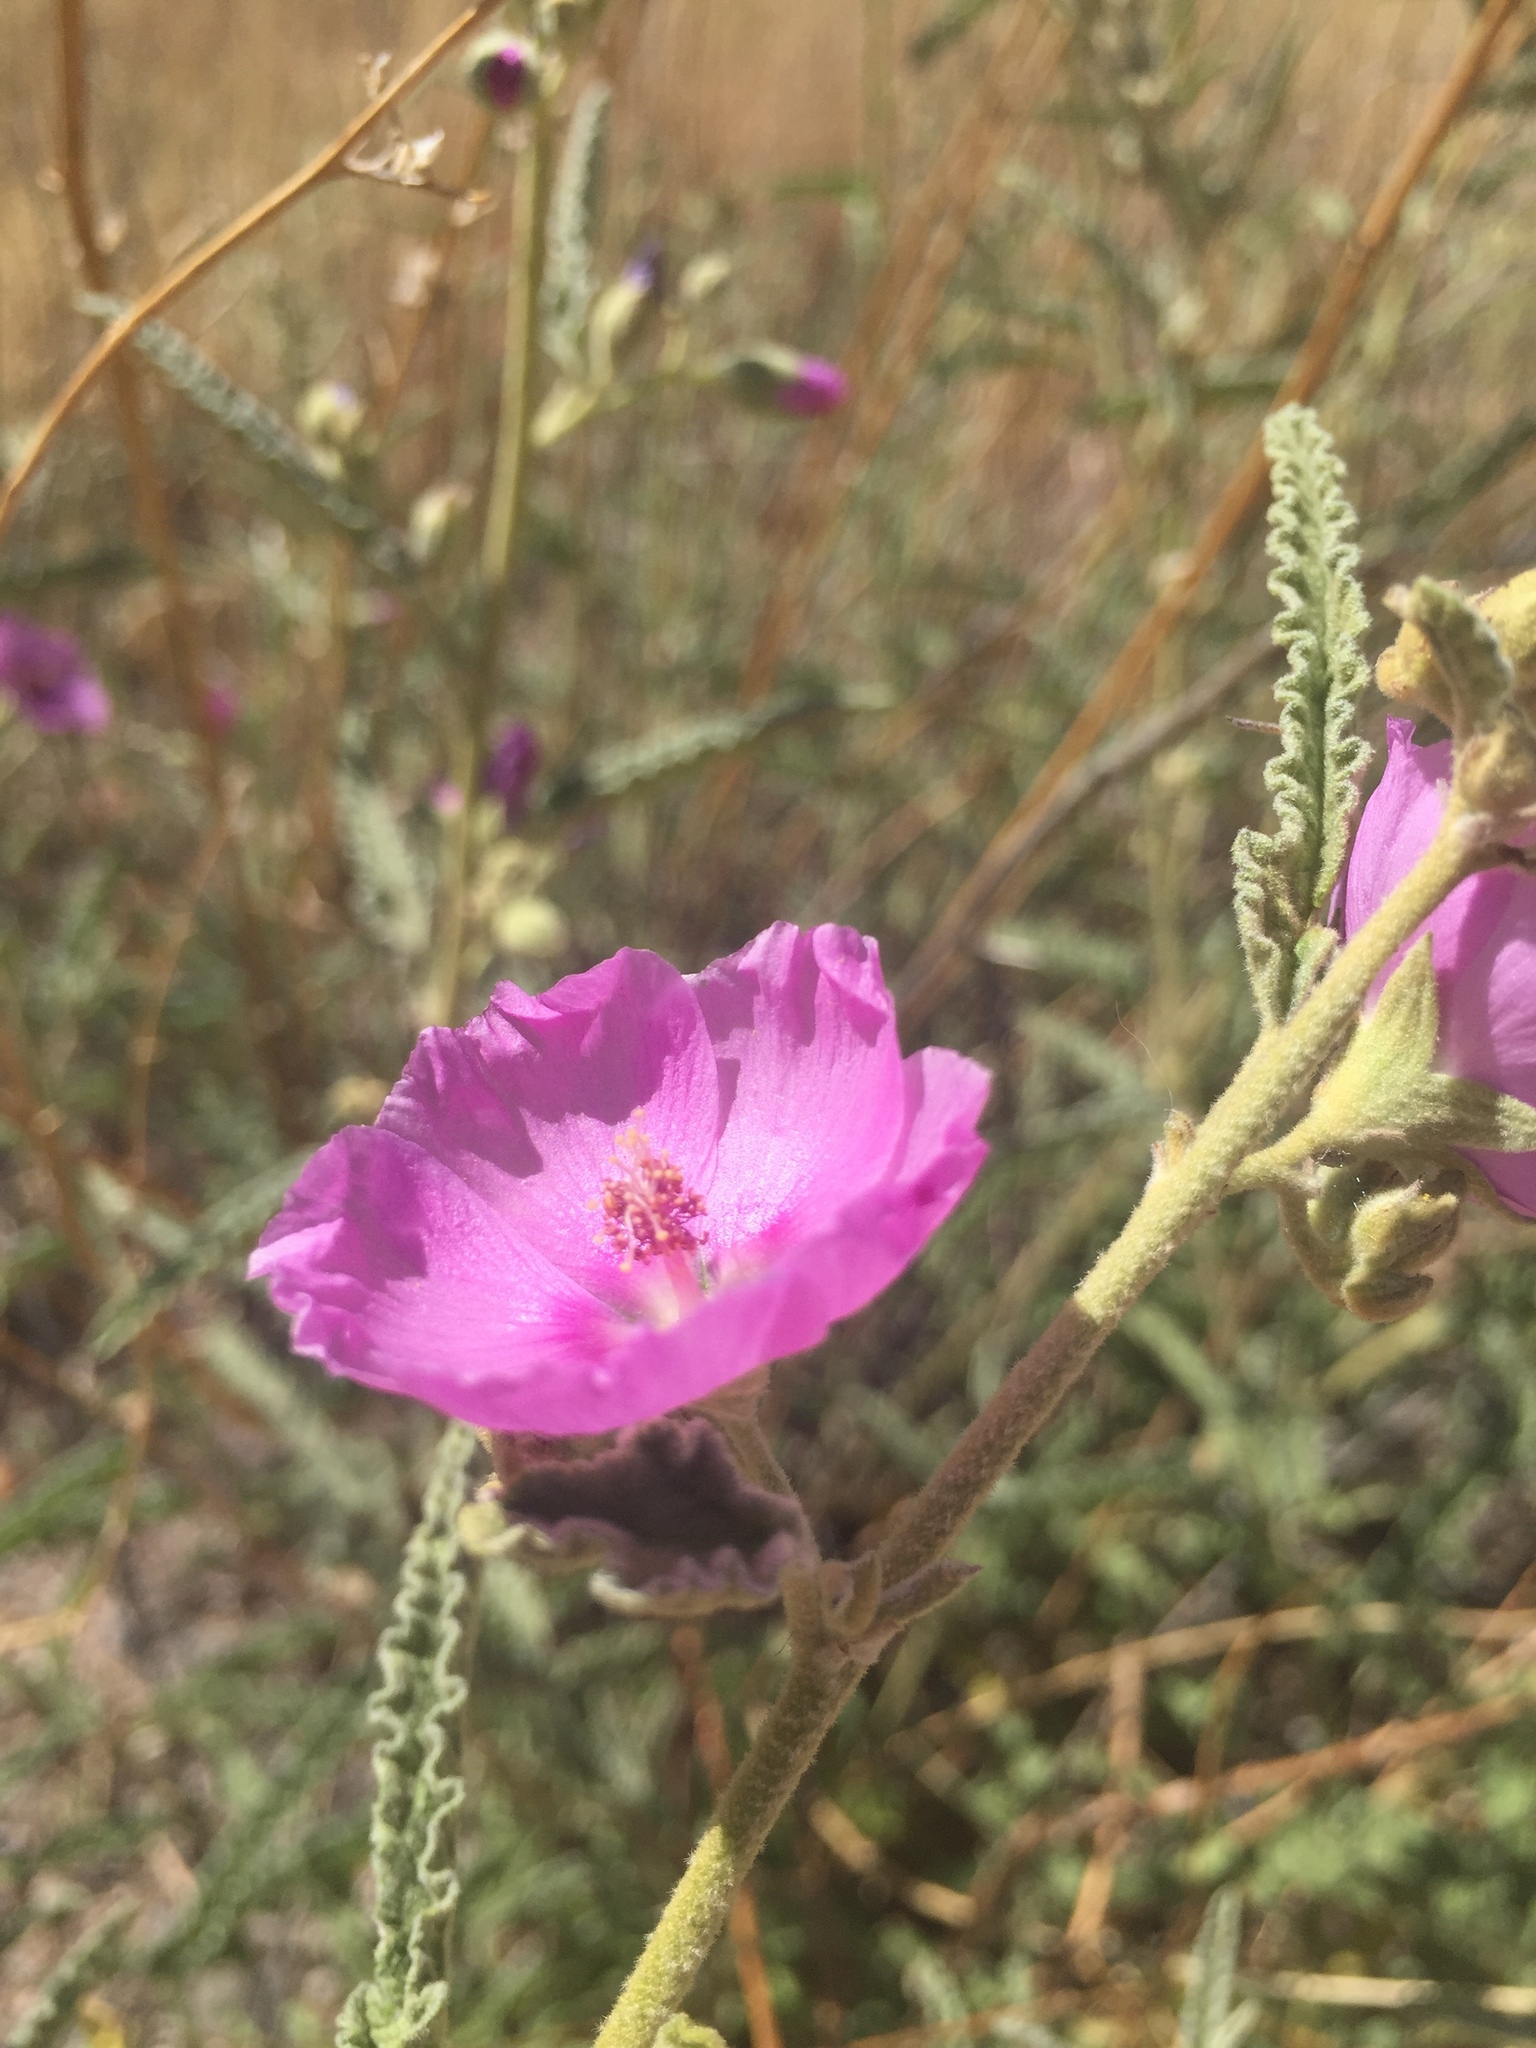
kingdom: Plantae
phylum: Tracheophyta
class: Magnoliopsida
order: Malvales
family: Malvaceae
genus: Sphaeralcea
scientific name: Sphaeralcea angustifolia
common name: Copper globe-mallow
